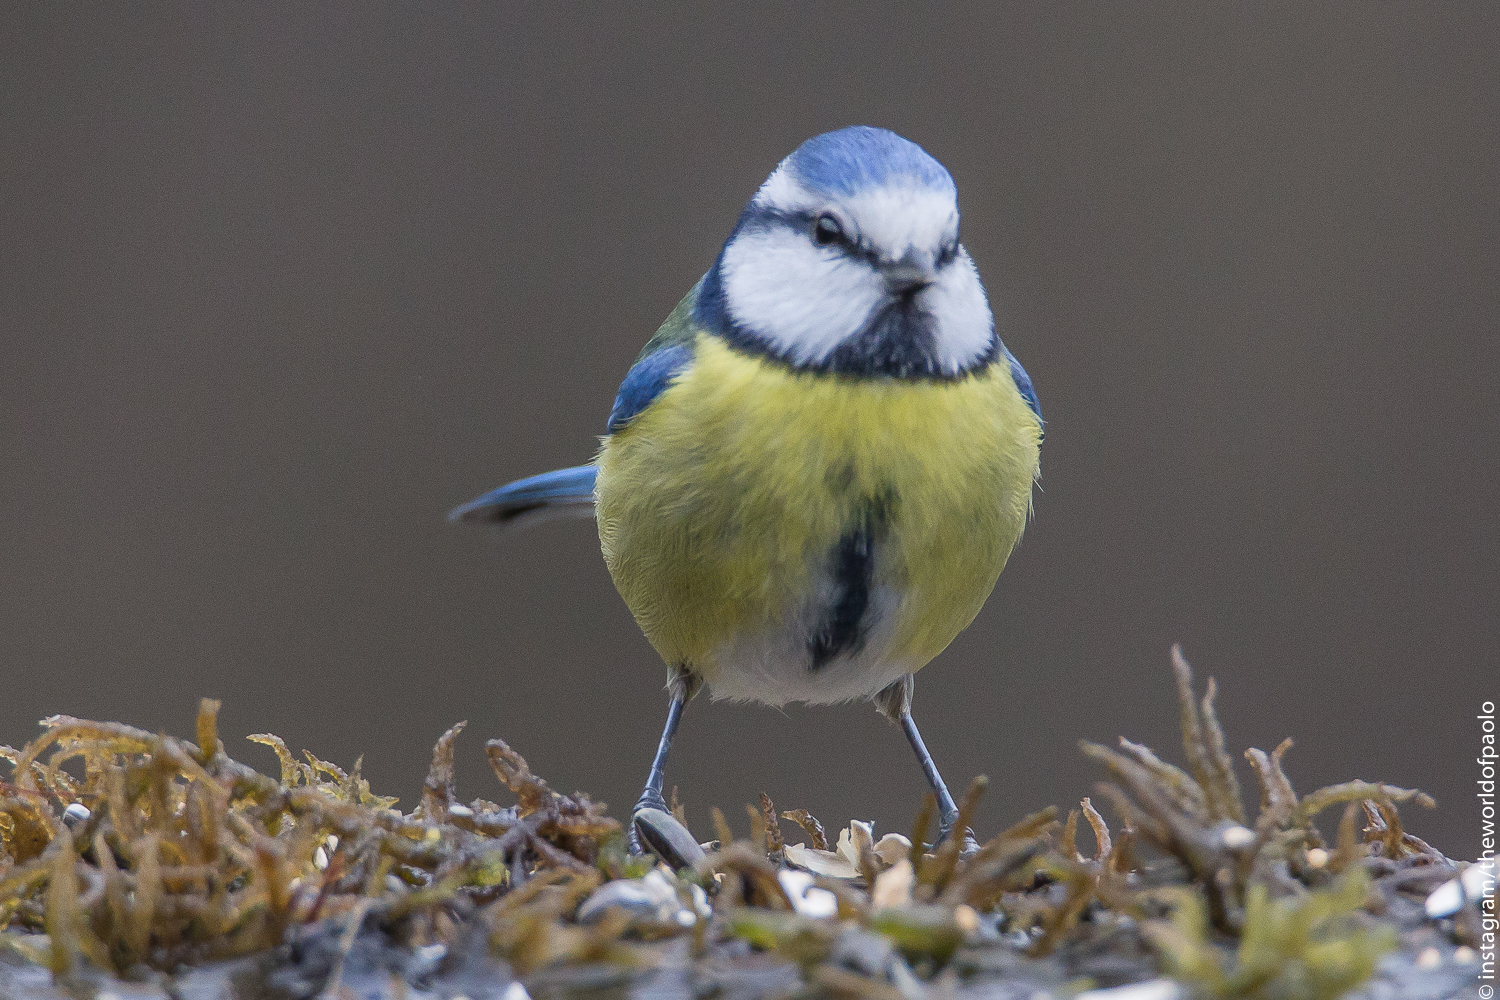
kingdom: Animalia
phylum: Chordata
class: Aves
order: Passeriformes
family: Paridae
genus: Cyanistes
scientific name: Cyanistes caeruleus
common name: Eurasian blue tit
